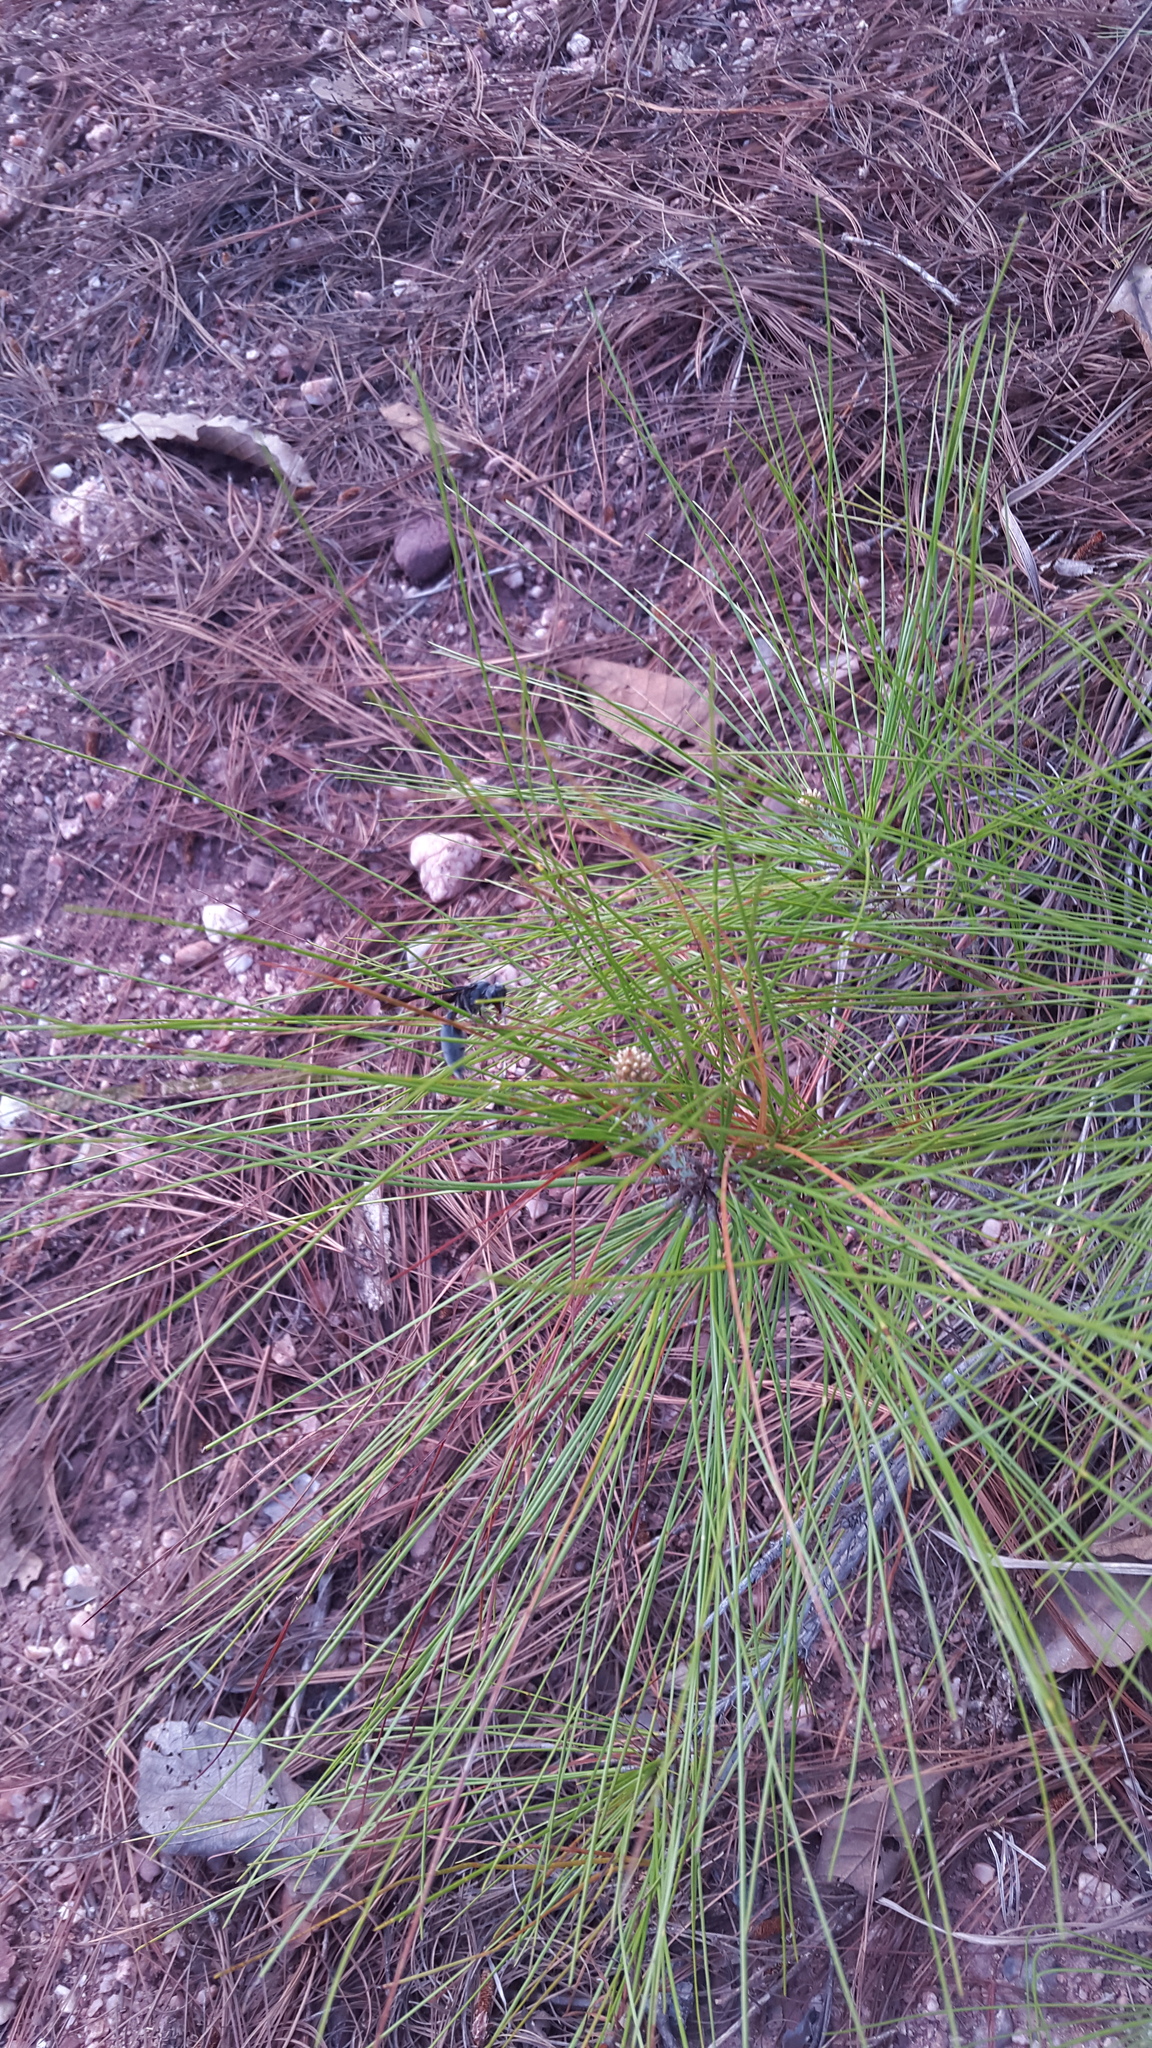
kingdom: Animalia
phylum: Arthropoda
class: Insecta
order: Hymenoptera
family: Vespidae
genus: Synoeca
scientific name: Synoeca septentrionalis
